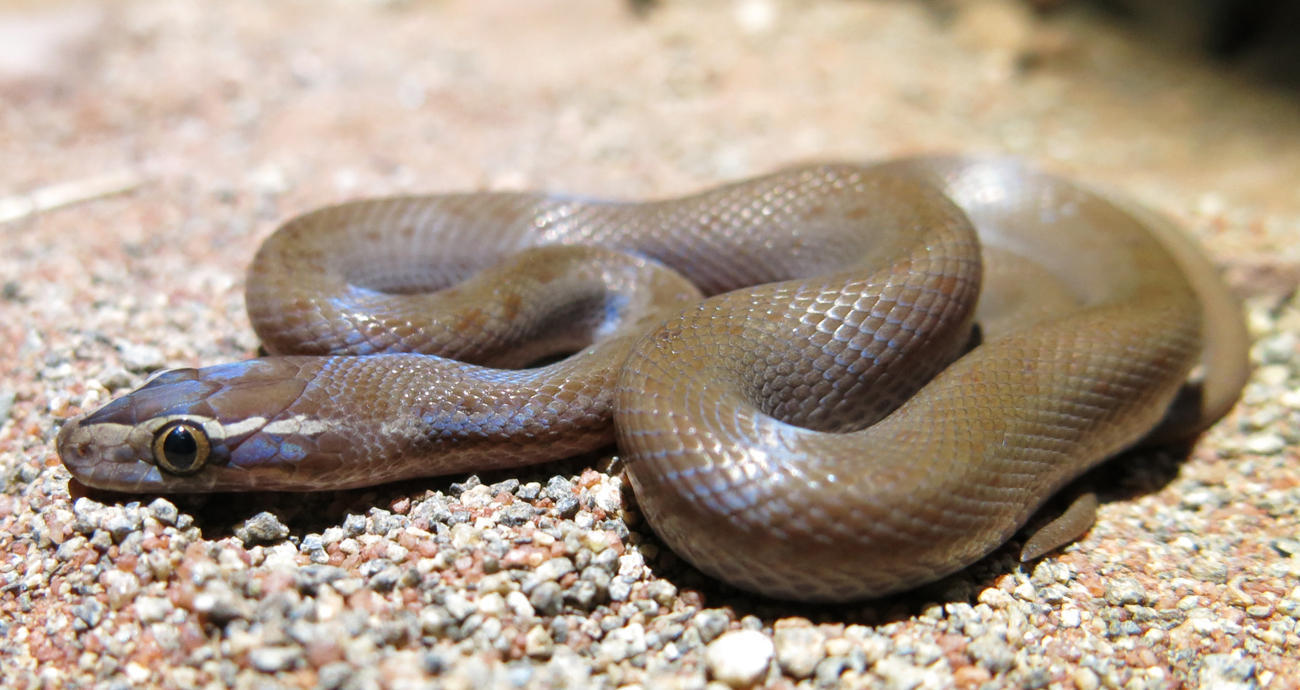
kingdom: Animalia
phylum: Chordata
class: Squamata
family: Lamprophiidae
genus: Boaedon
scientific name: Boaedon capensis
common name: Brown house snake
